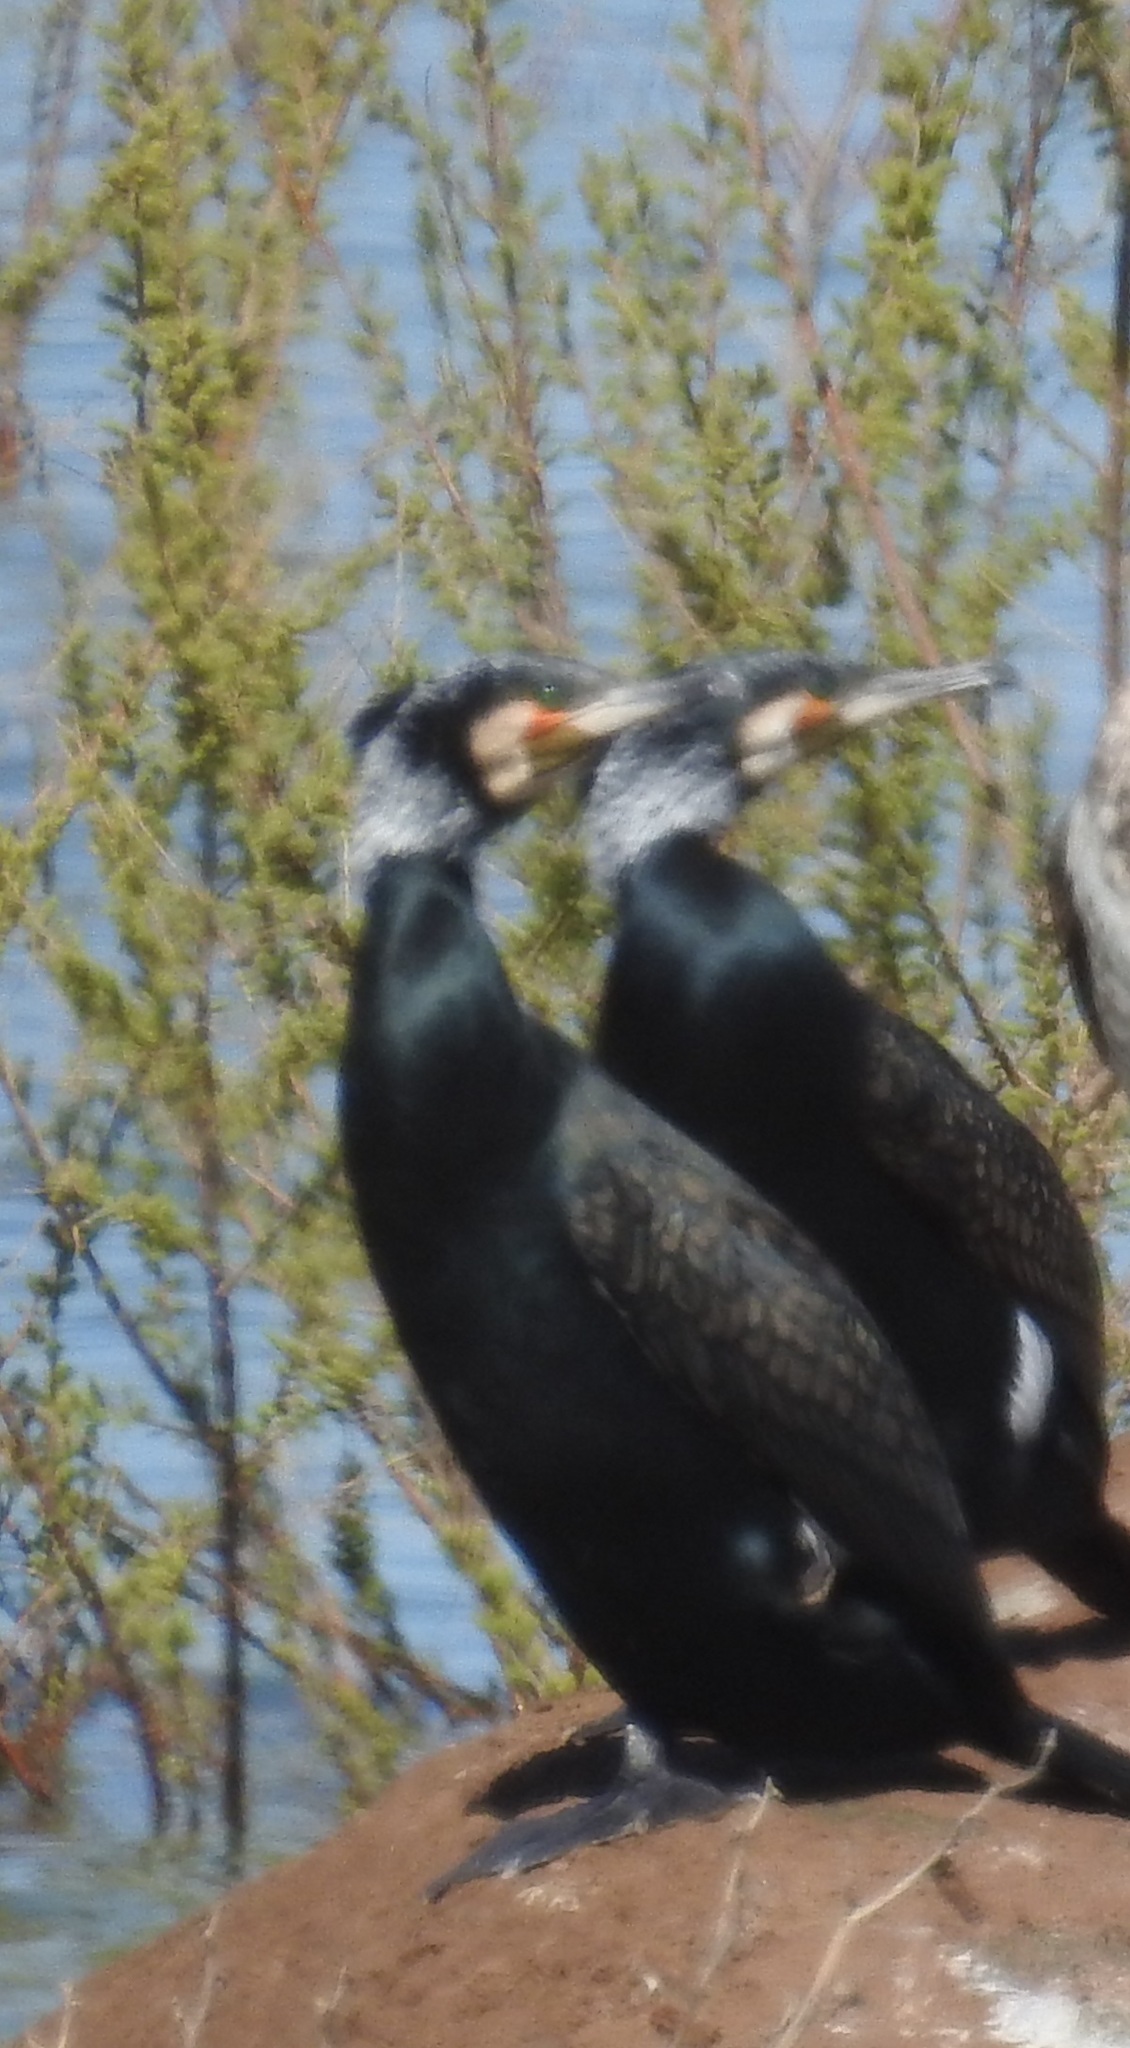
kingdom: Animalia
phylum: Chordata
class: Aves
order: Suliformes
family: Phalacrocoracidae
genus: Phalacrocorax
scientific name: Phalacrocorax carbo
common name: Great cormorant
